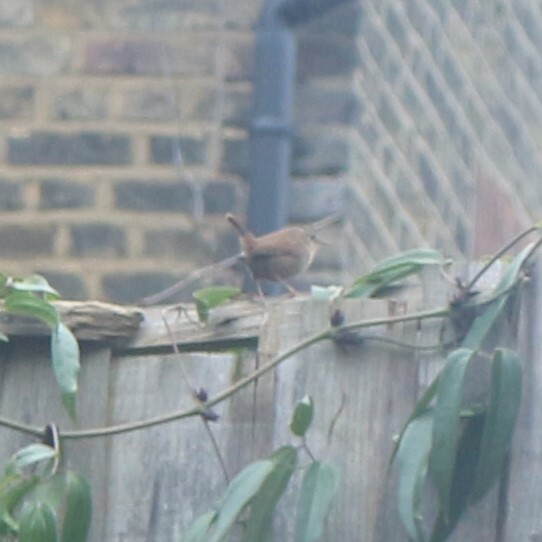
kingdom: Animalia
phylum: Chordata
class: Aves
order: Passeriformes
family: Troglodytidae
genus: Troglodytes
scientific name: Troglodytes troglodytes
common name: Eurasian wren
